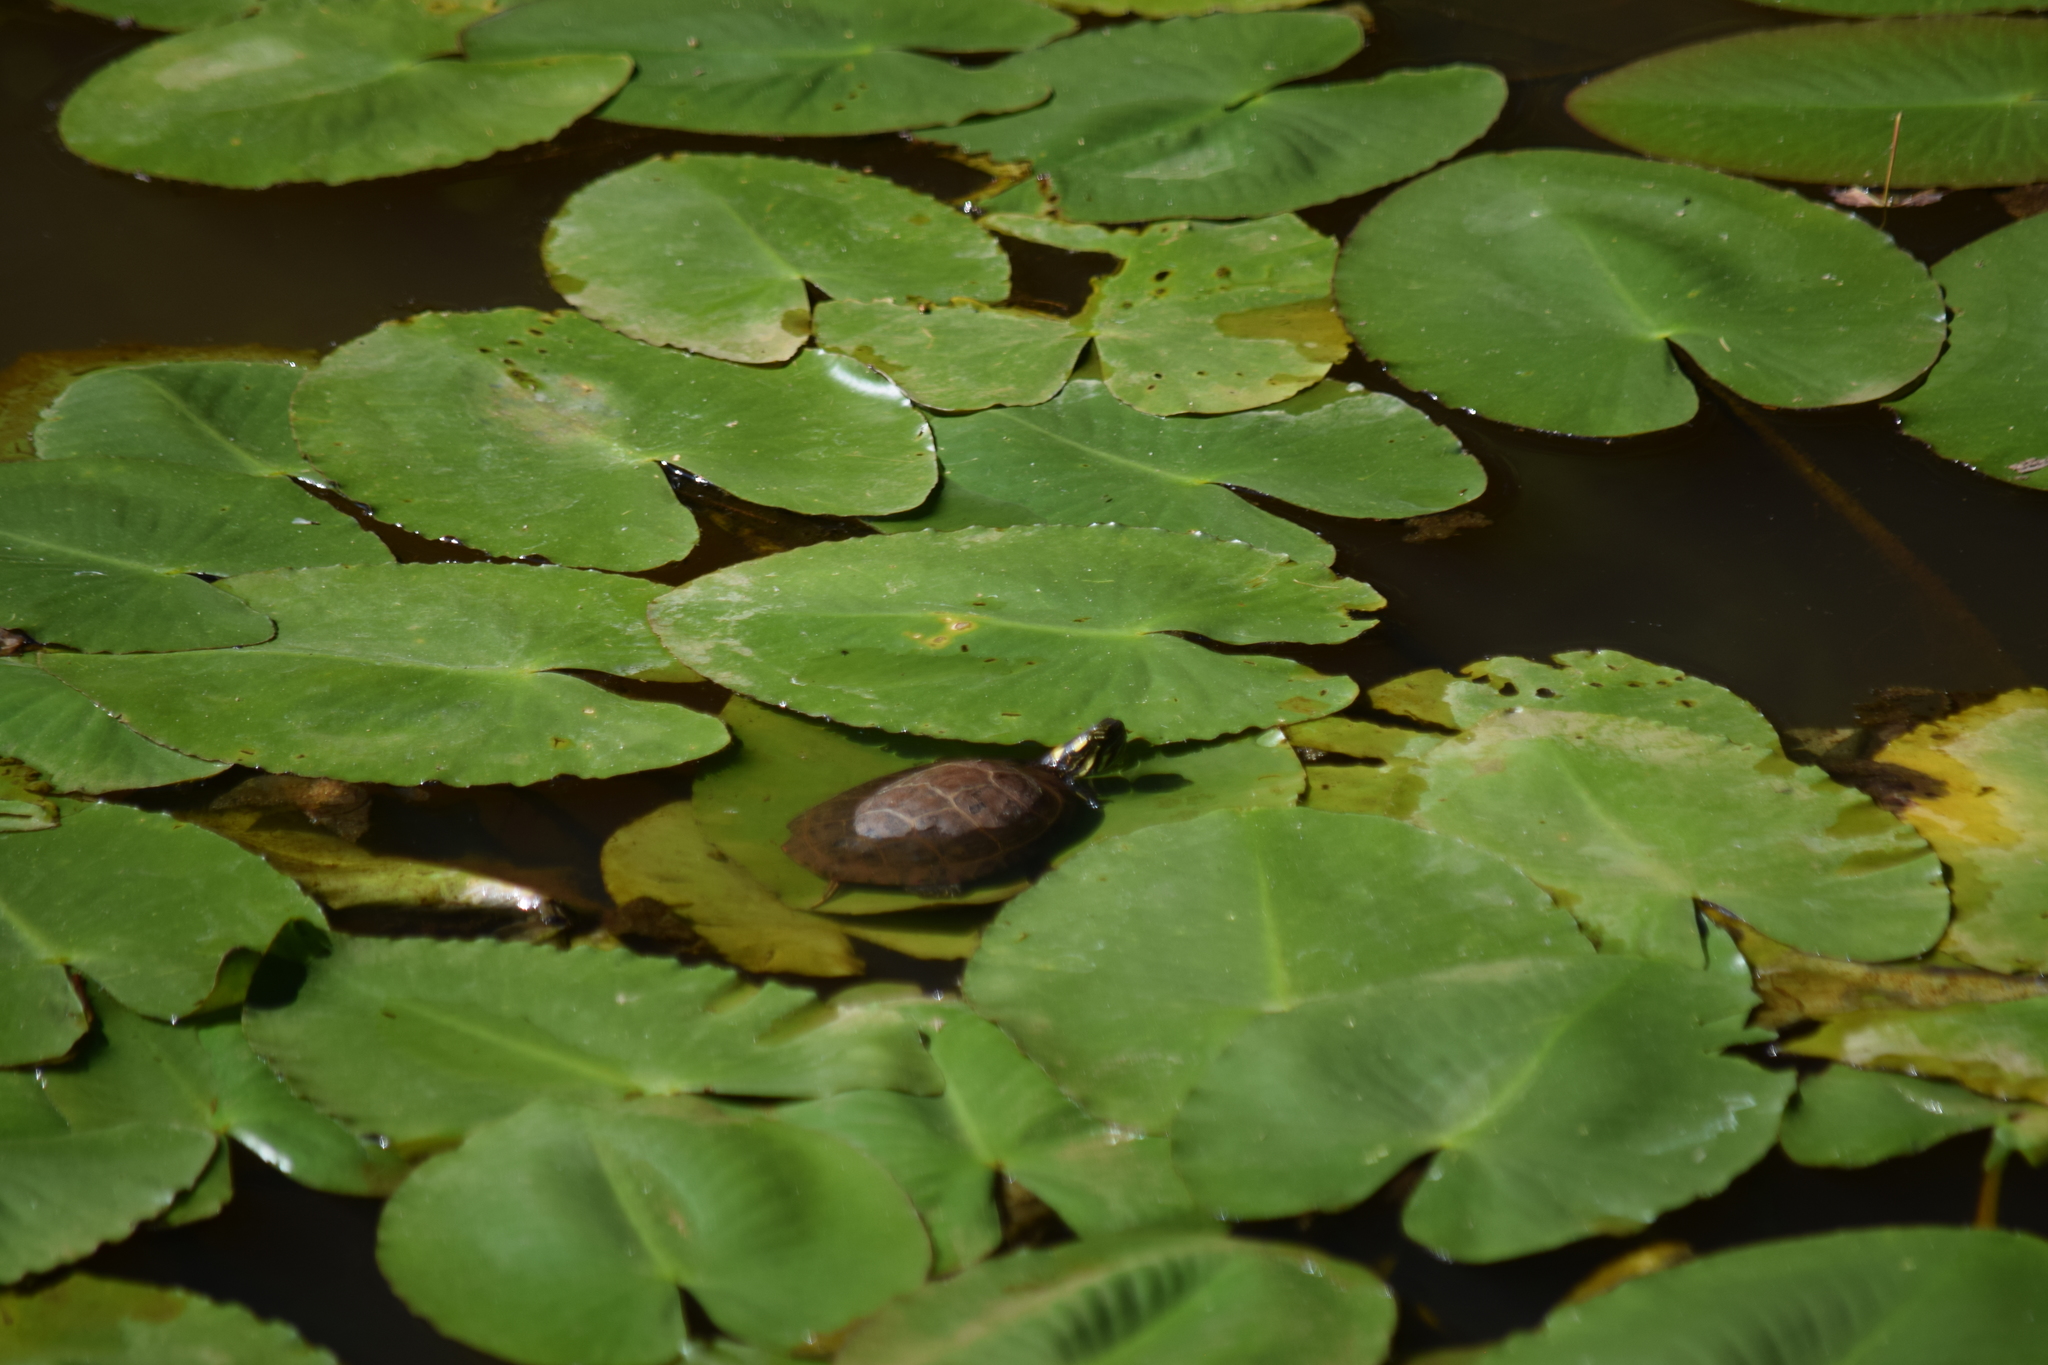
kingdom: Animalia
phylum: Chordata
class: Testudines
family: Emydidae
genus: Chrysemys
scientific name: Chrysemys picta
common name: Painted turtle
